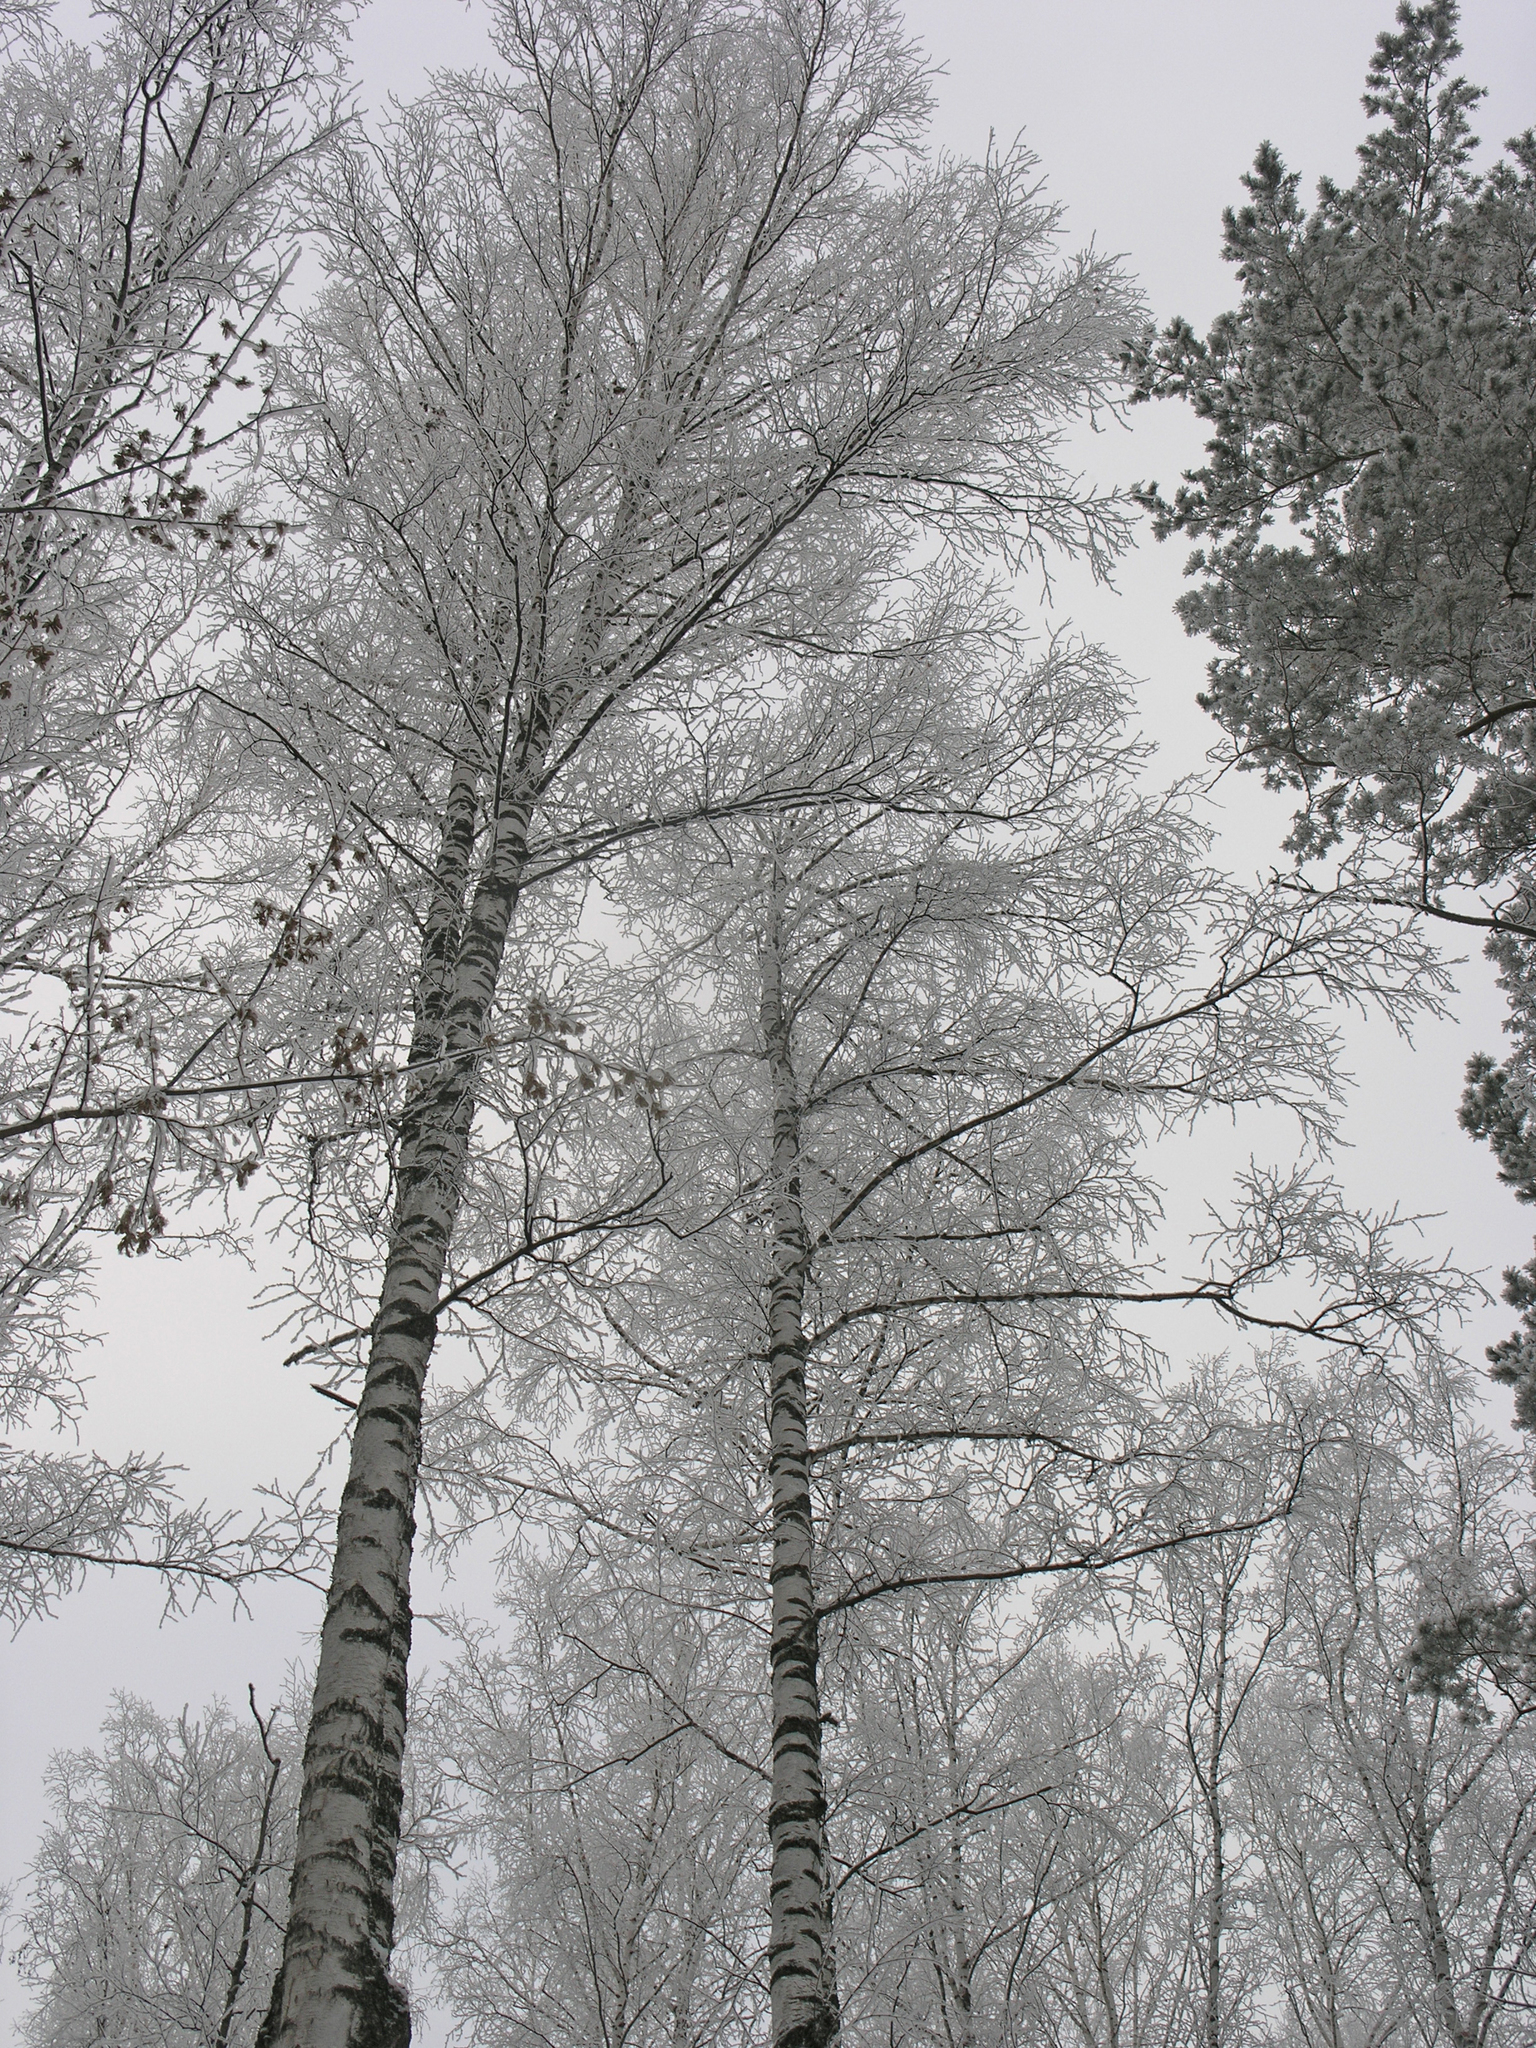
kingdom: Plantae
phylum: Tracheophyta
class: Magnoliopsida
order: Fagales
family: Betulaceae
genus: Betula
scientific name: Betula pendula
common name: Silver birch
